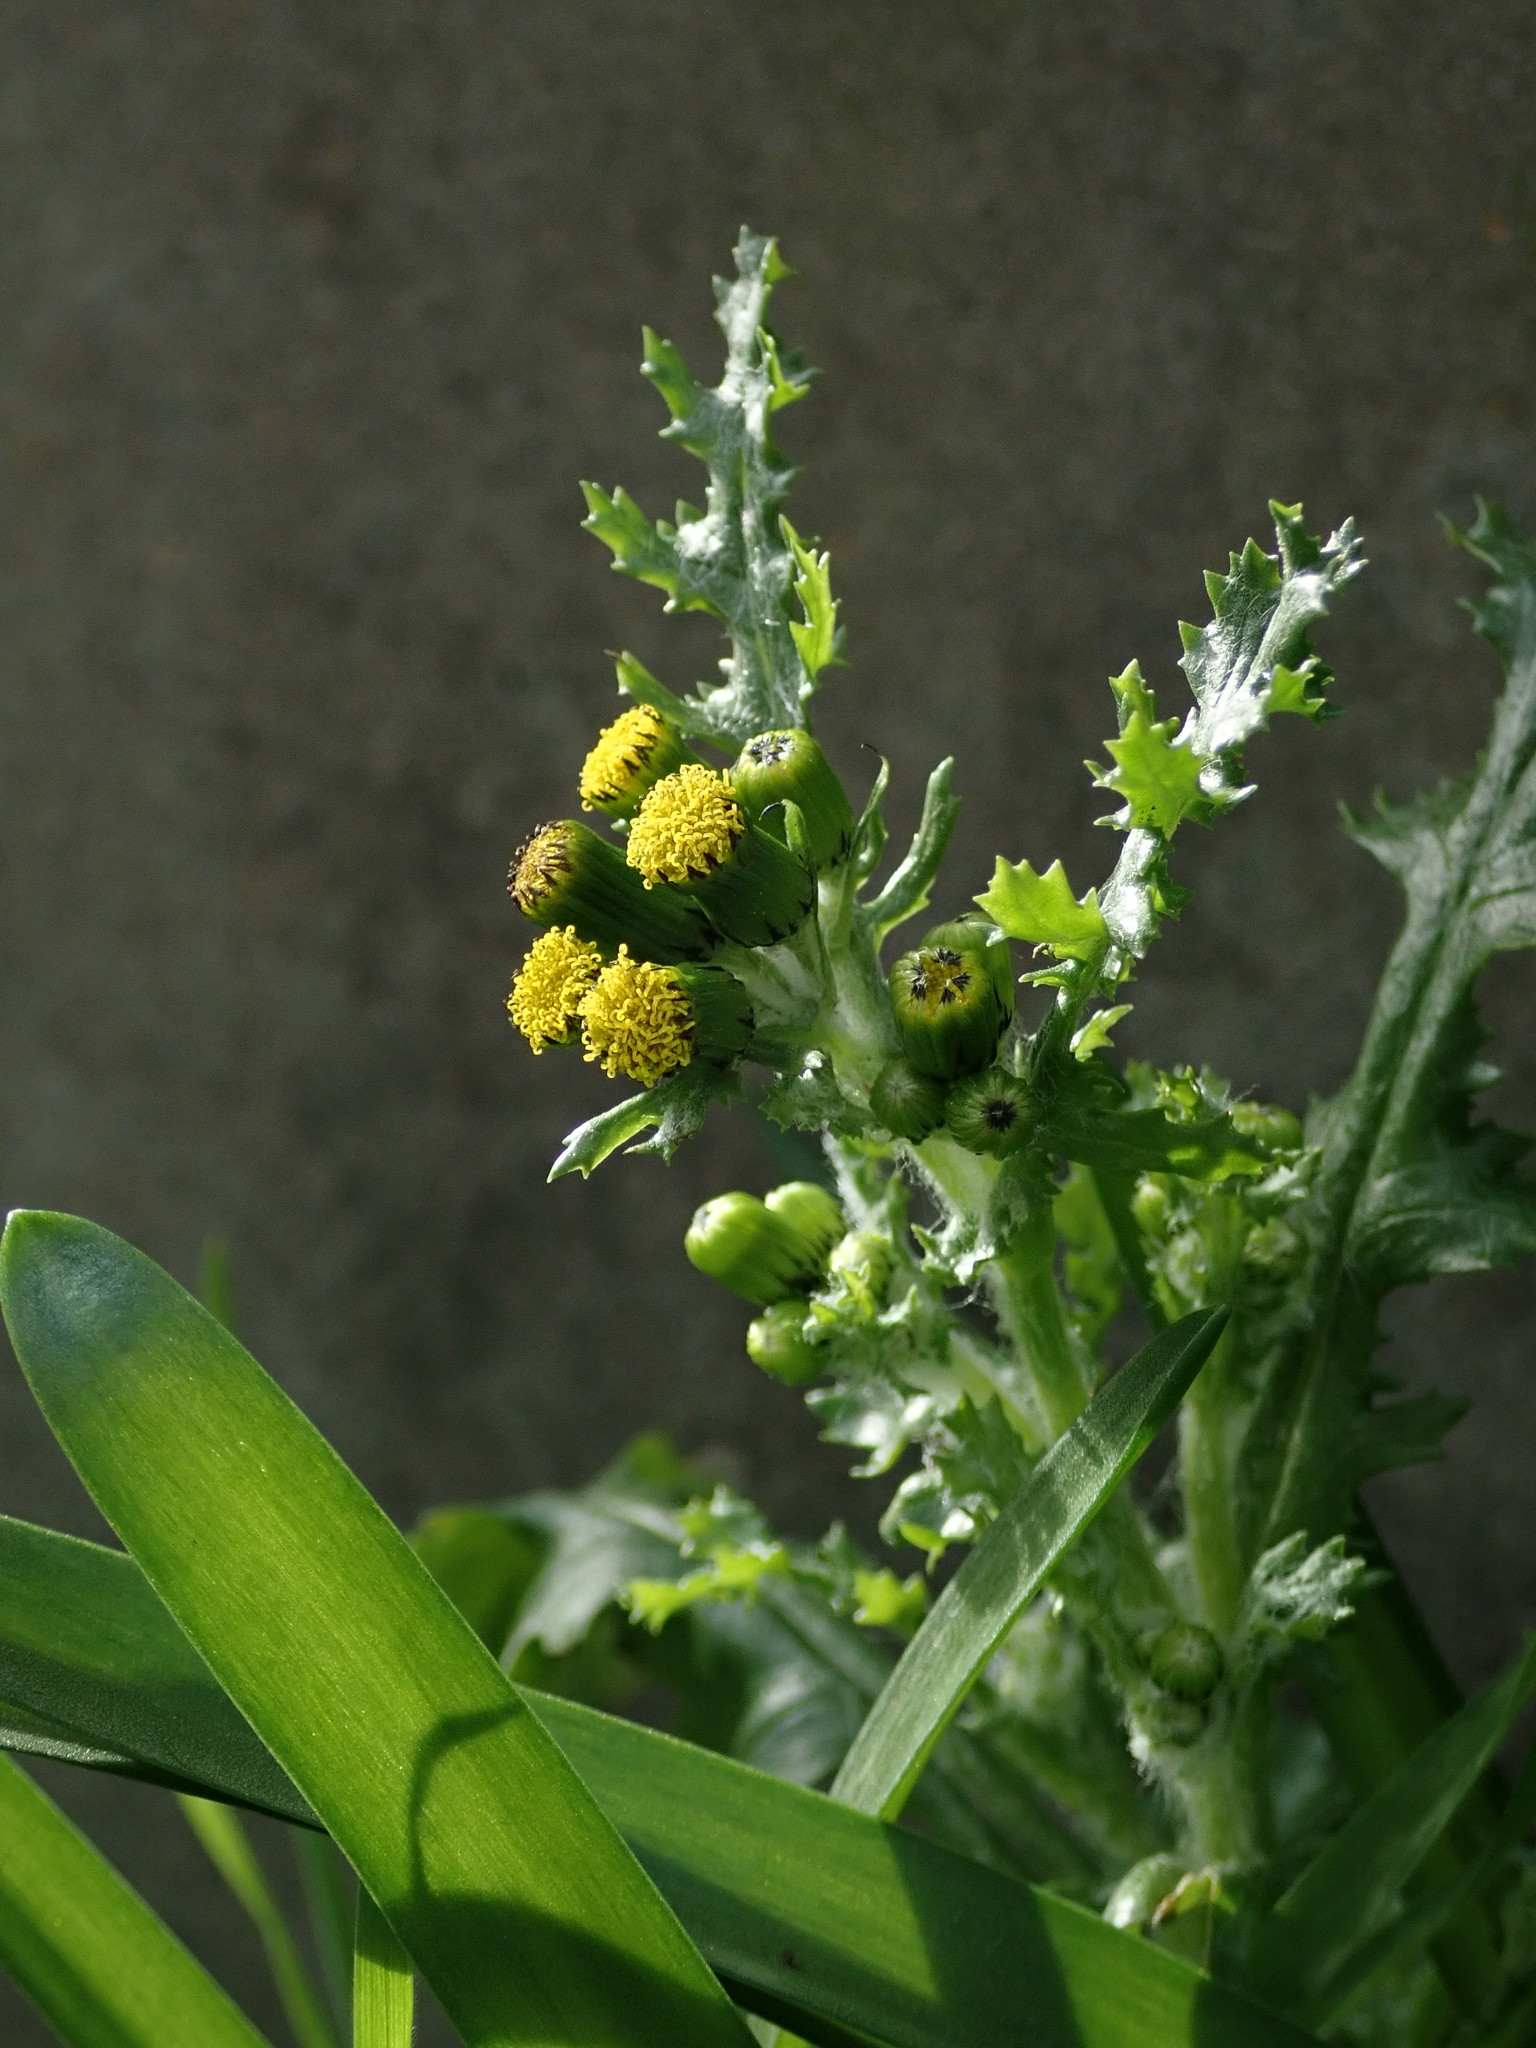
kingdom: Plantae
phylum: Tracheophyta
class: Magnoliopsida
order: Asterales
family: Asteraceae
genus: Senecio
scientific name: Senecio vulgaris
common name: Old-man-in-the-spring
